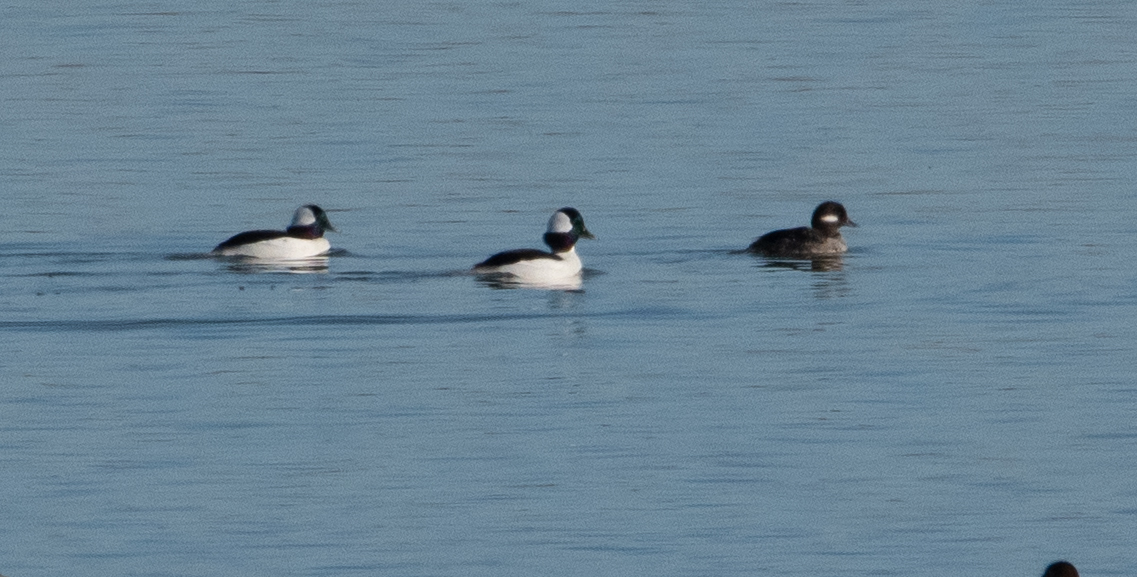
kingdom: Animalia
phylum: Chordata
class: Aves
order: Anseriformes
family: Anatidae
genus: Bucephala
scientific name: Bucephala albeola
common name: Bufflehead
